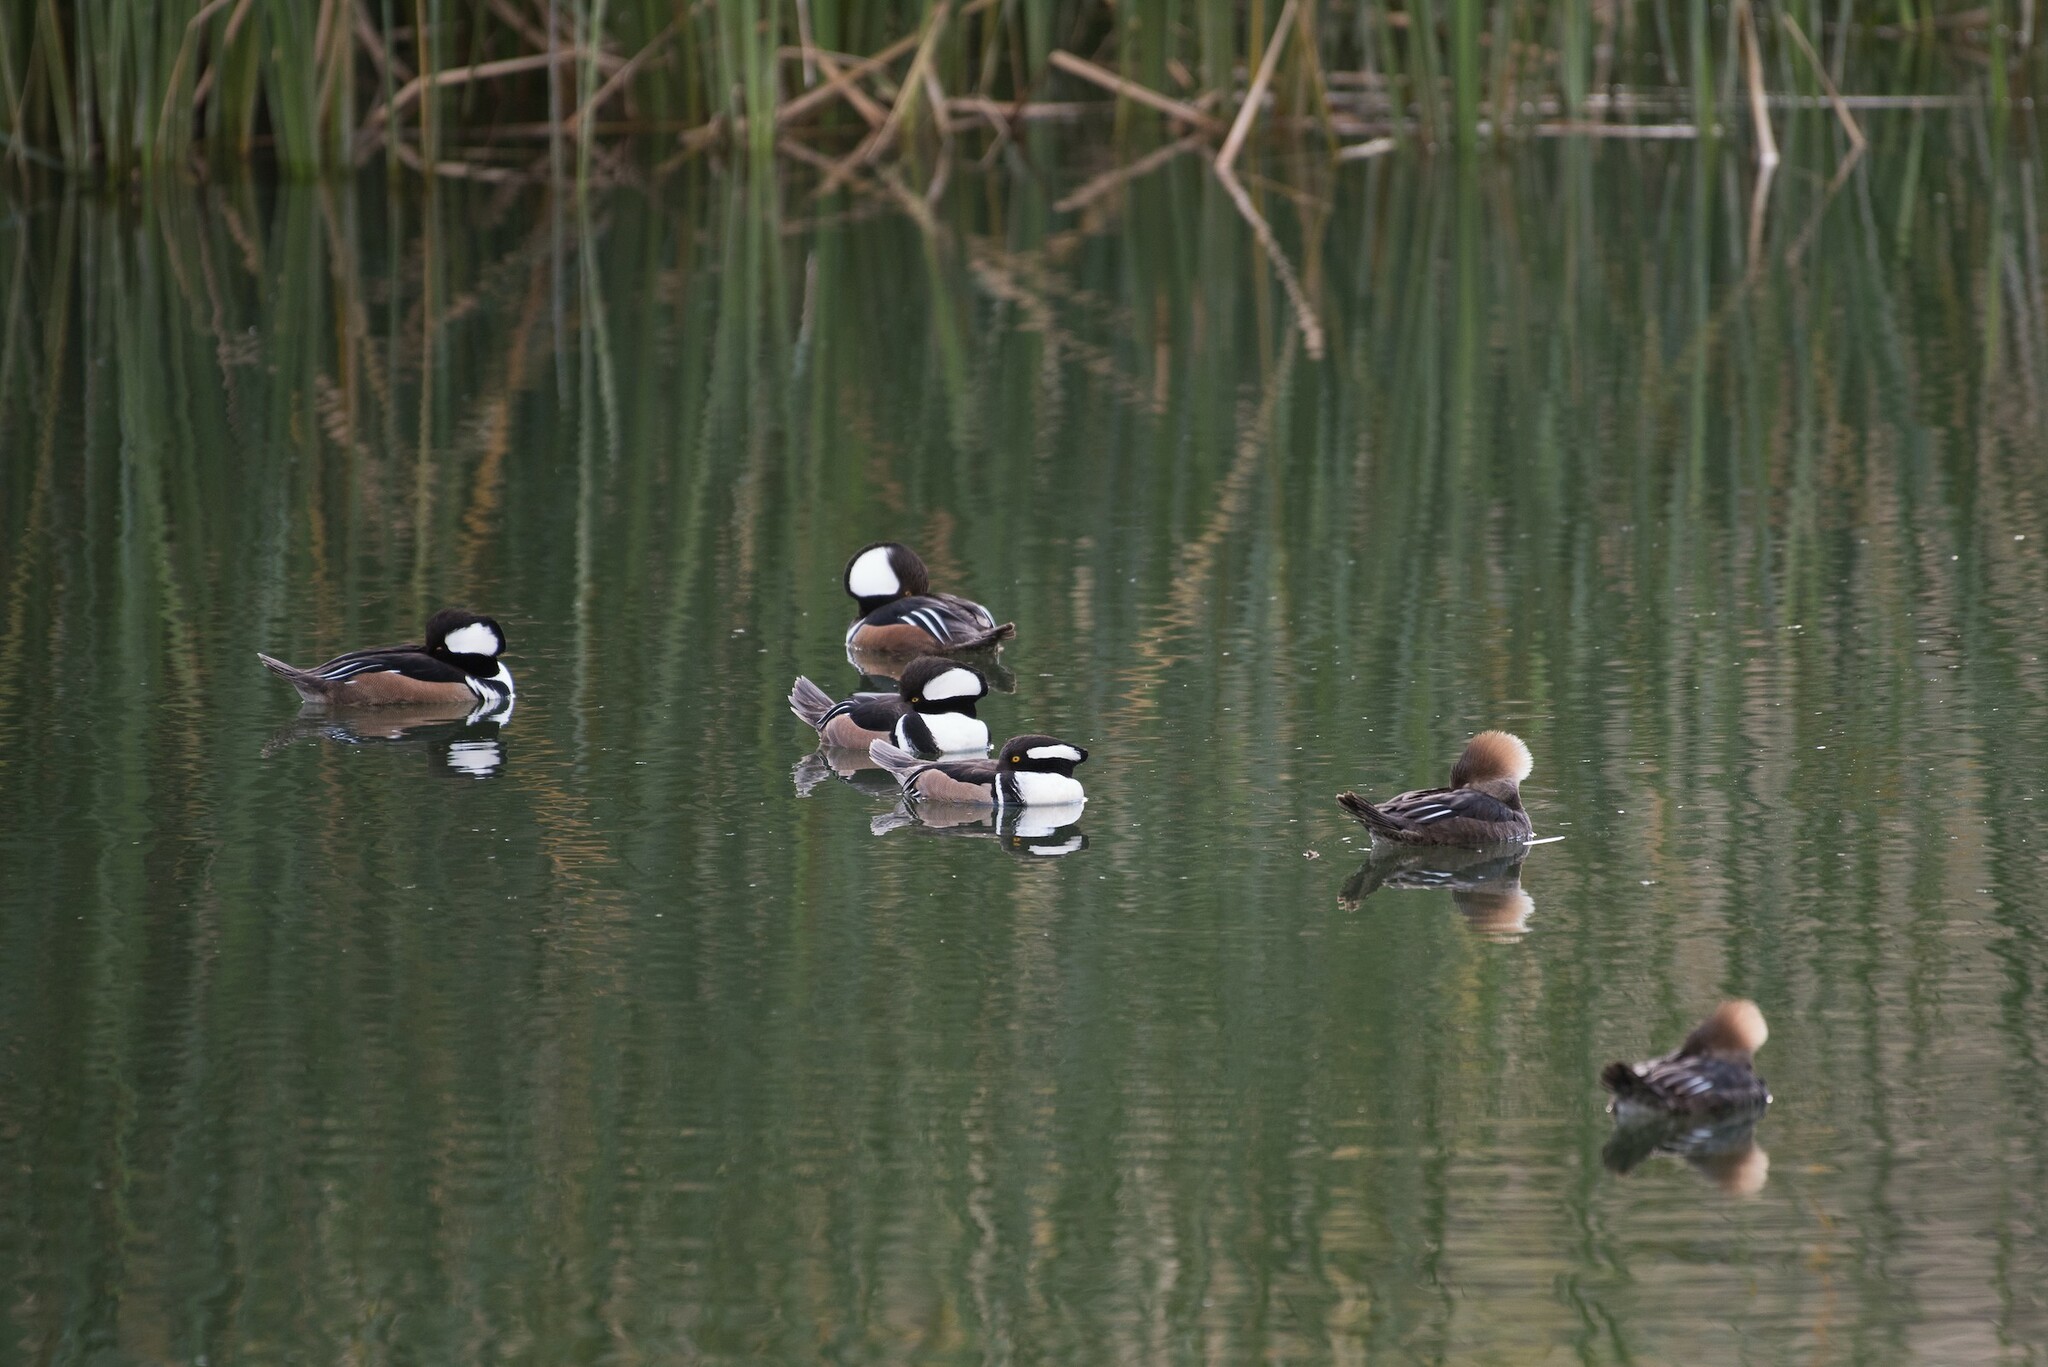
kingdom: Animalia
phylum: Chordata
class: Aves
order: Anseriformes
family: Anatidae
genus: Lophodytes
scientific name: Lophodytes cucullatus
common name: Hooded merganser
